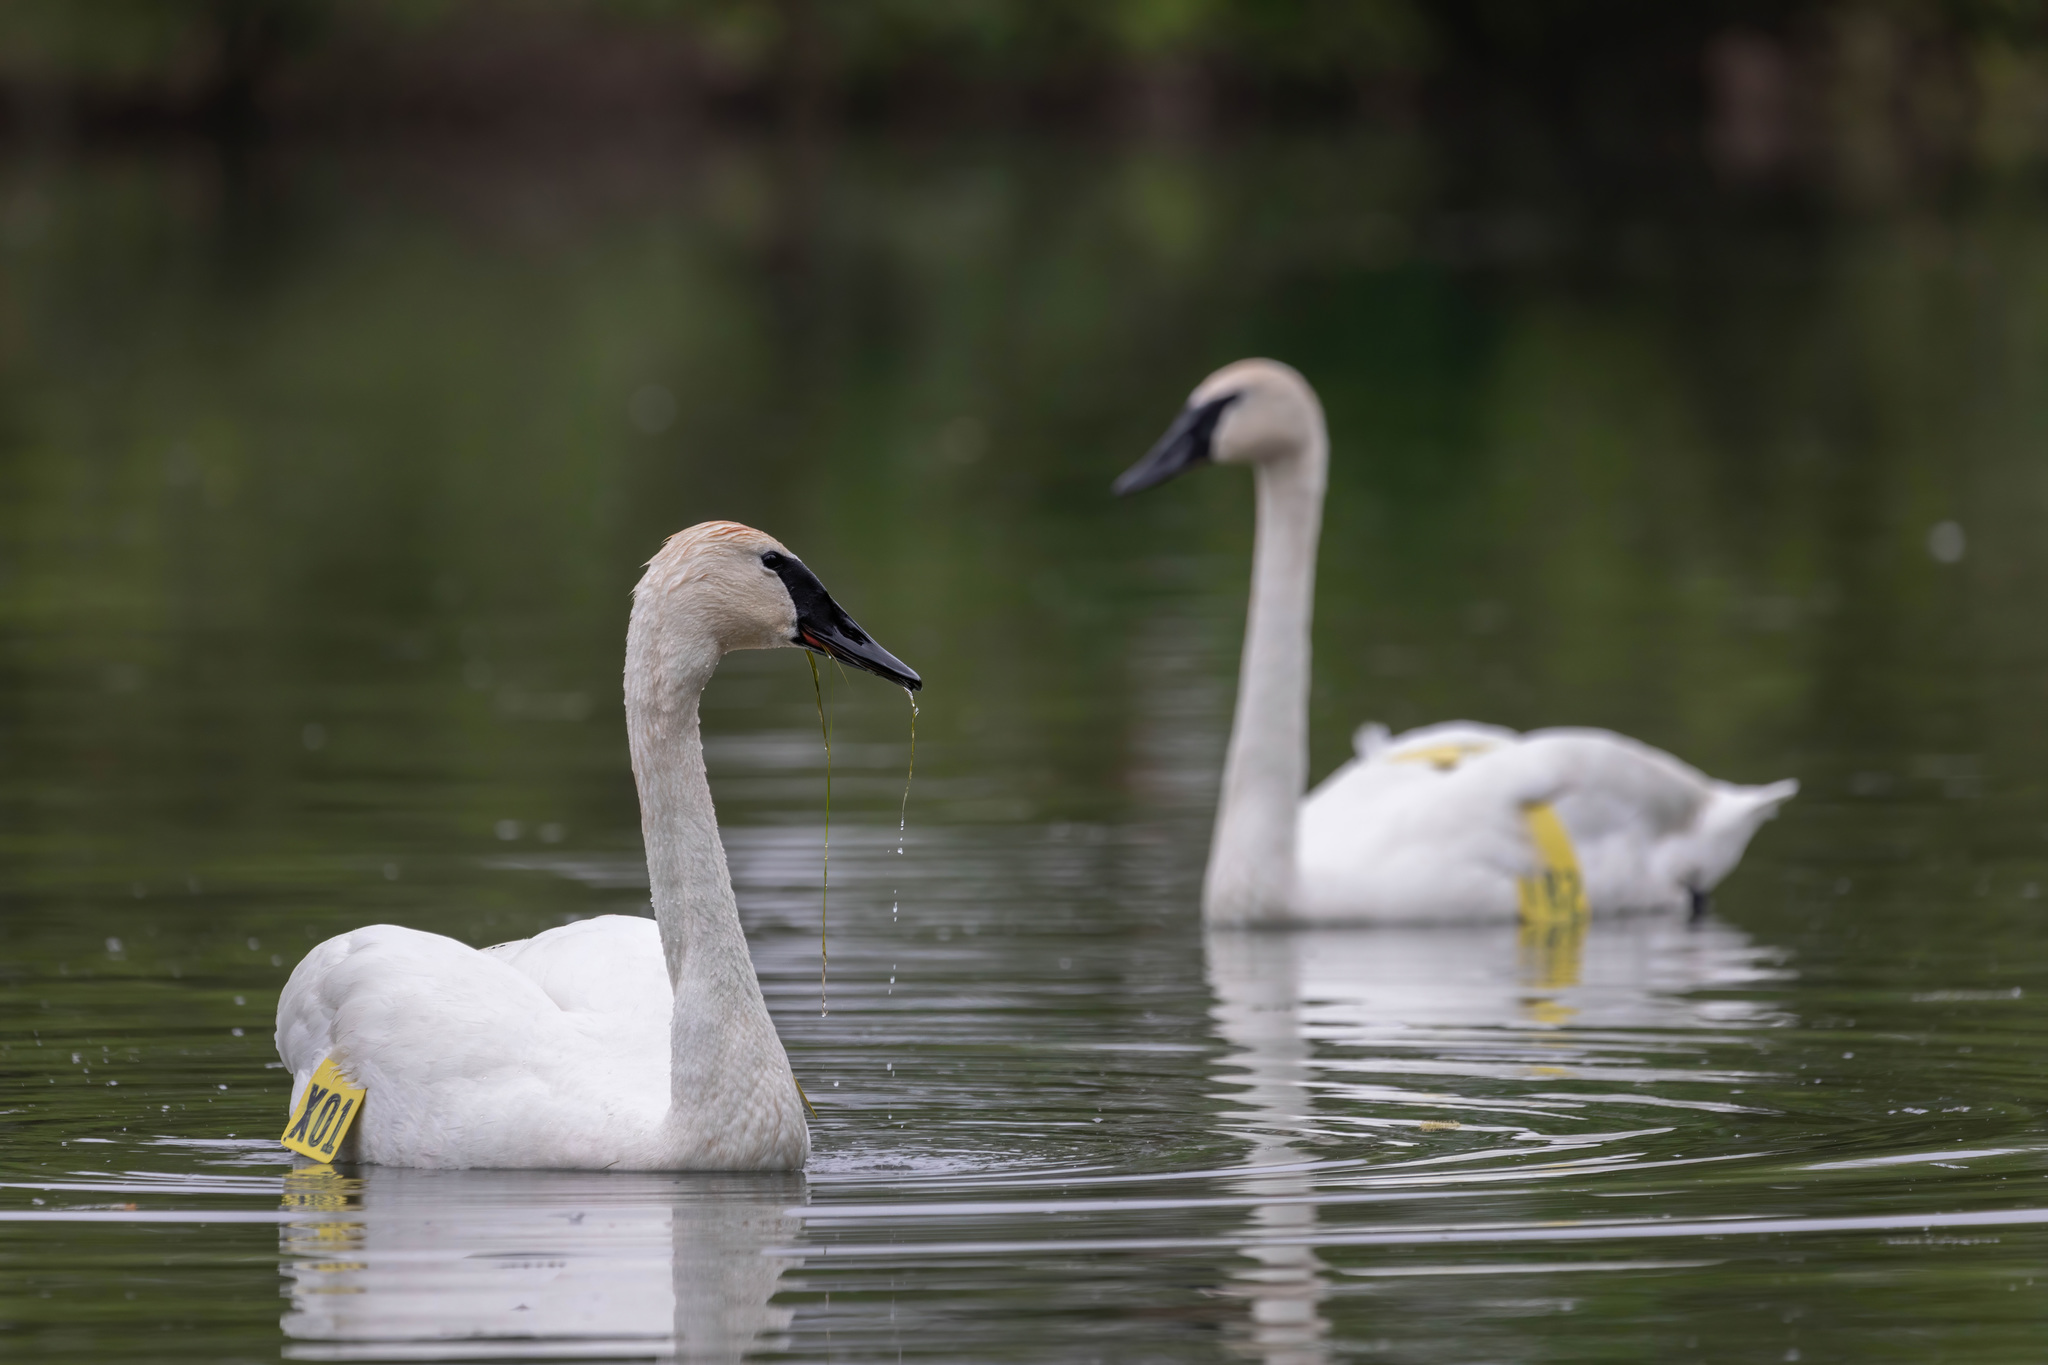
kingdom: Animalia
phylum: Chordata
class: Aves
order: Anseriformes
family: Anatidae
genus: Cygnus
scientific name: Cygnus buccinator
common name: Trumpeter swan
